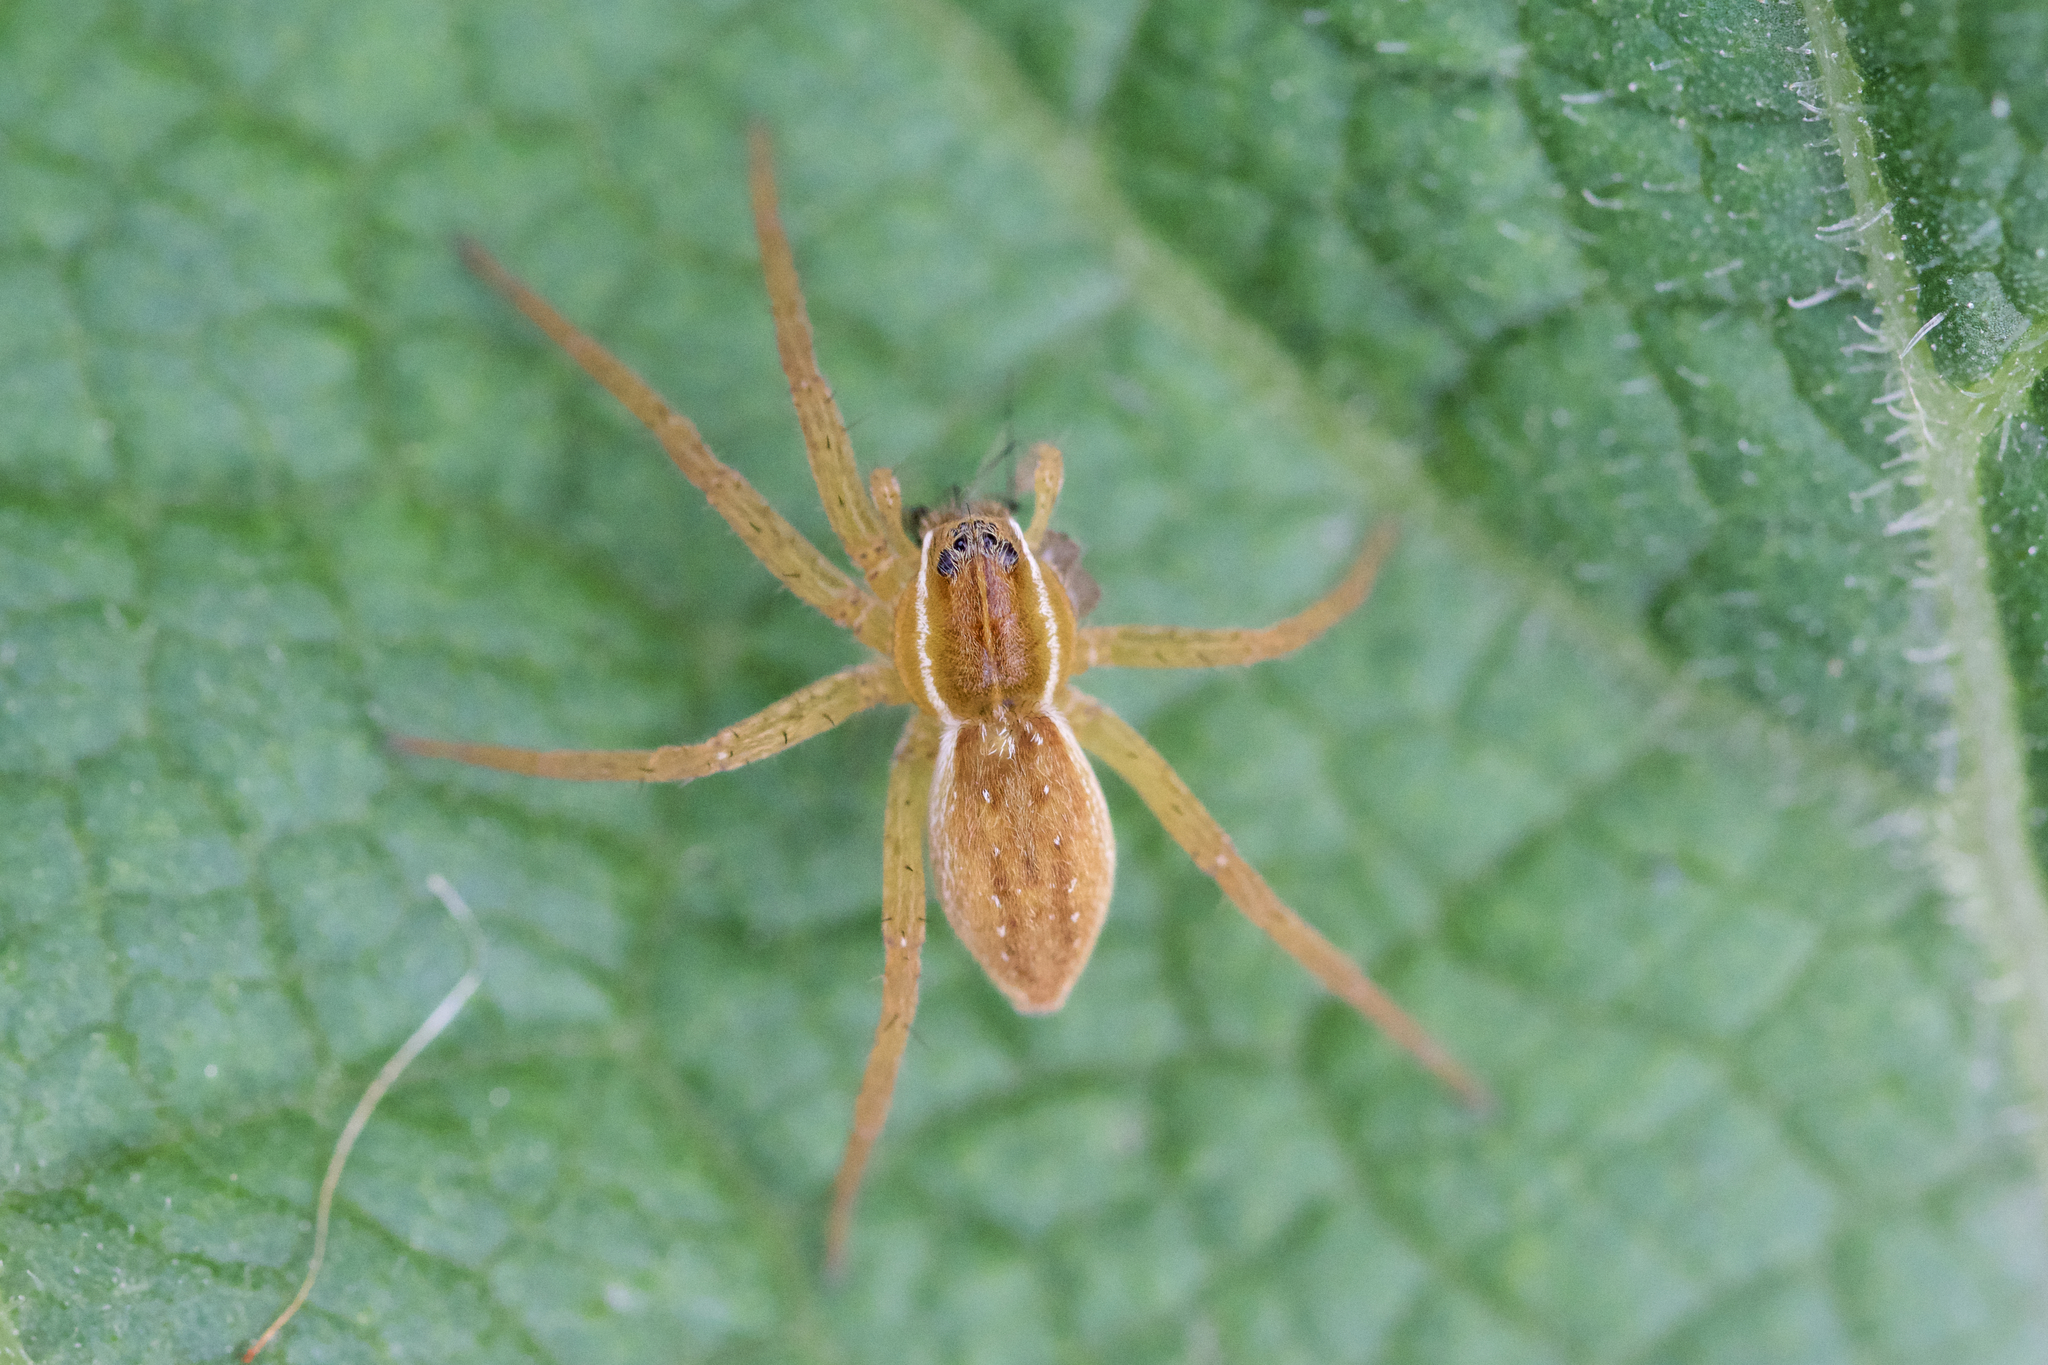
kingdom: Animalia
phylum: Arthropoda
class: Arachnida
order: Araneae
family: Pisauridae
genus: Dolomedes
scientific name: Dolomedes triton
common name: Six-spotted fishing spider
